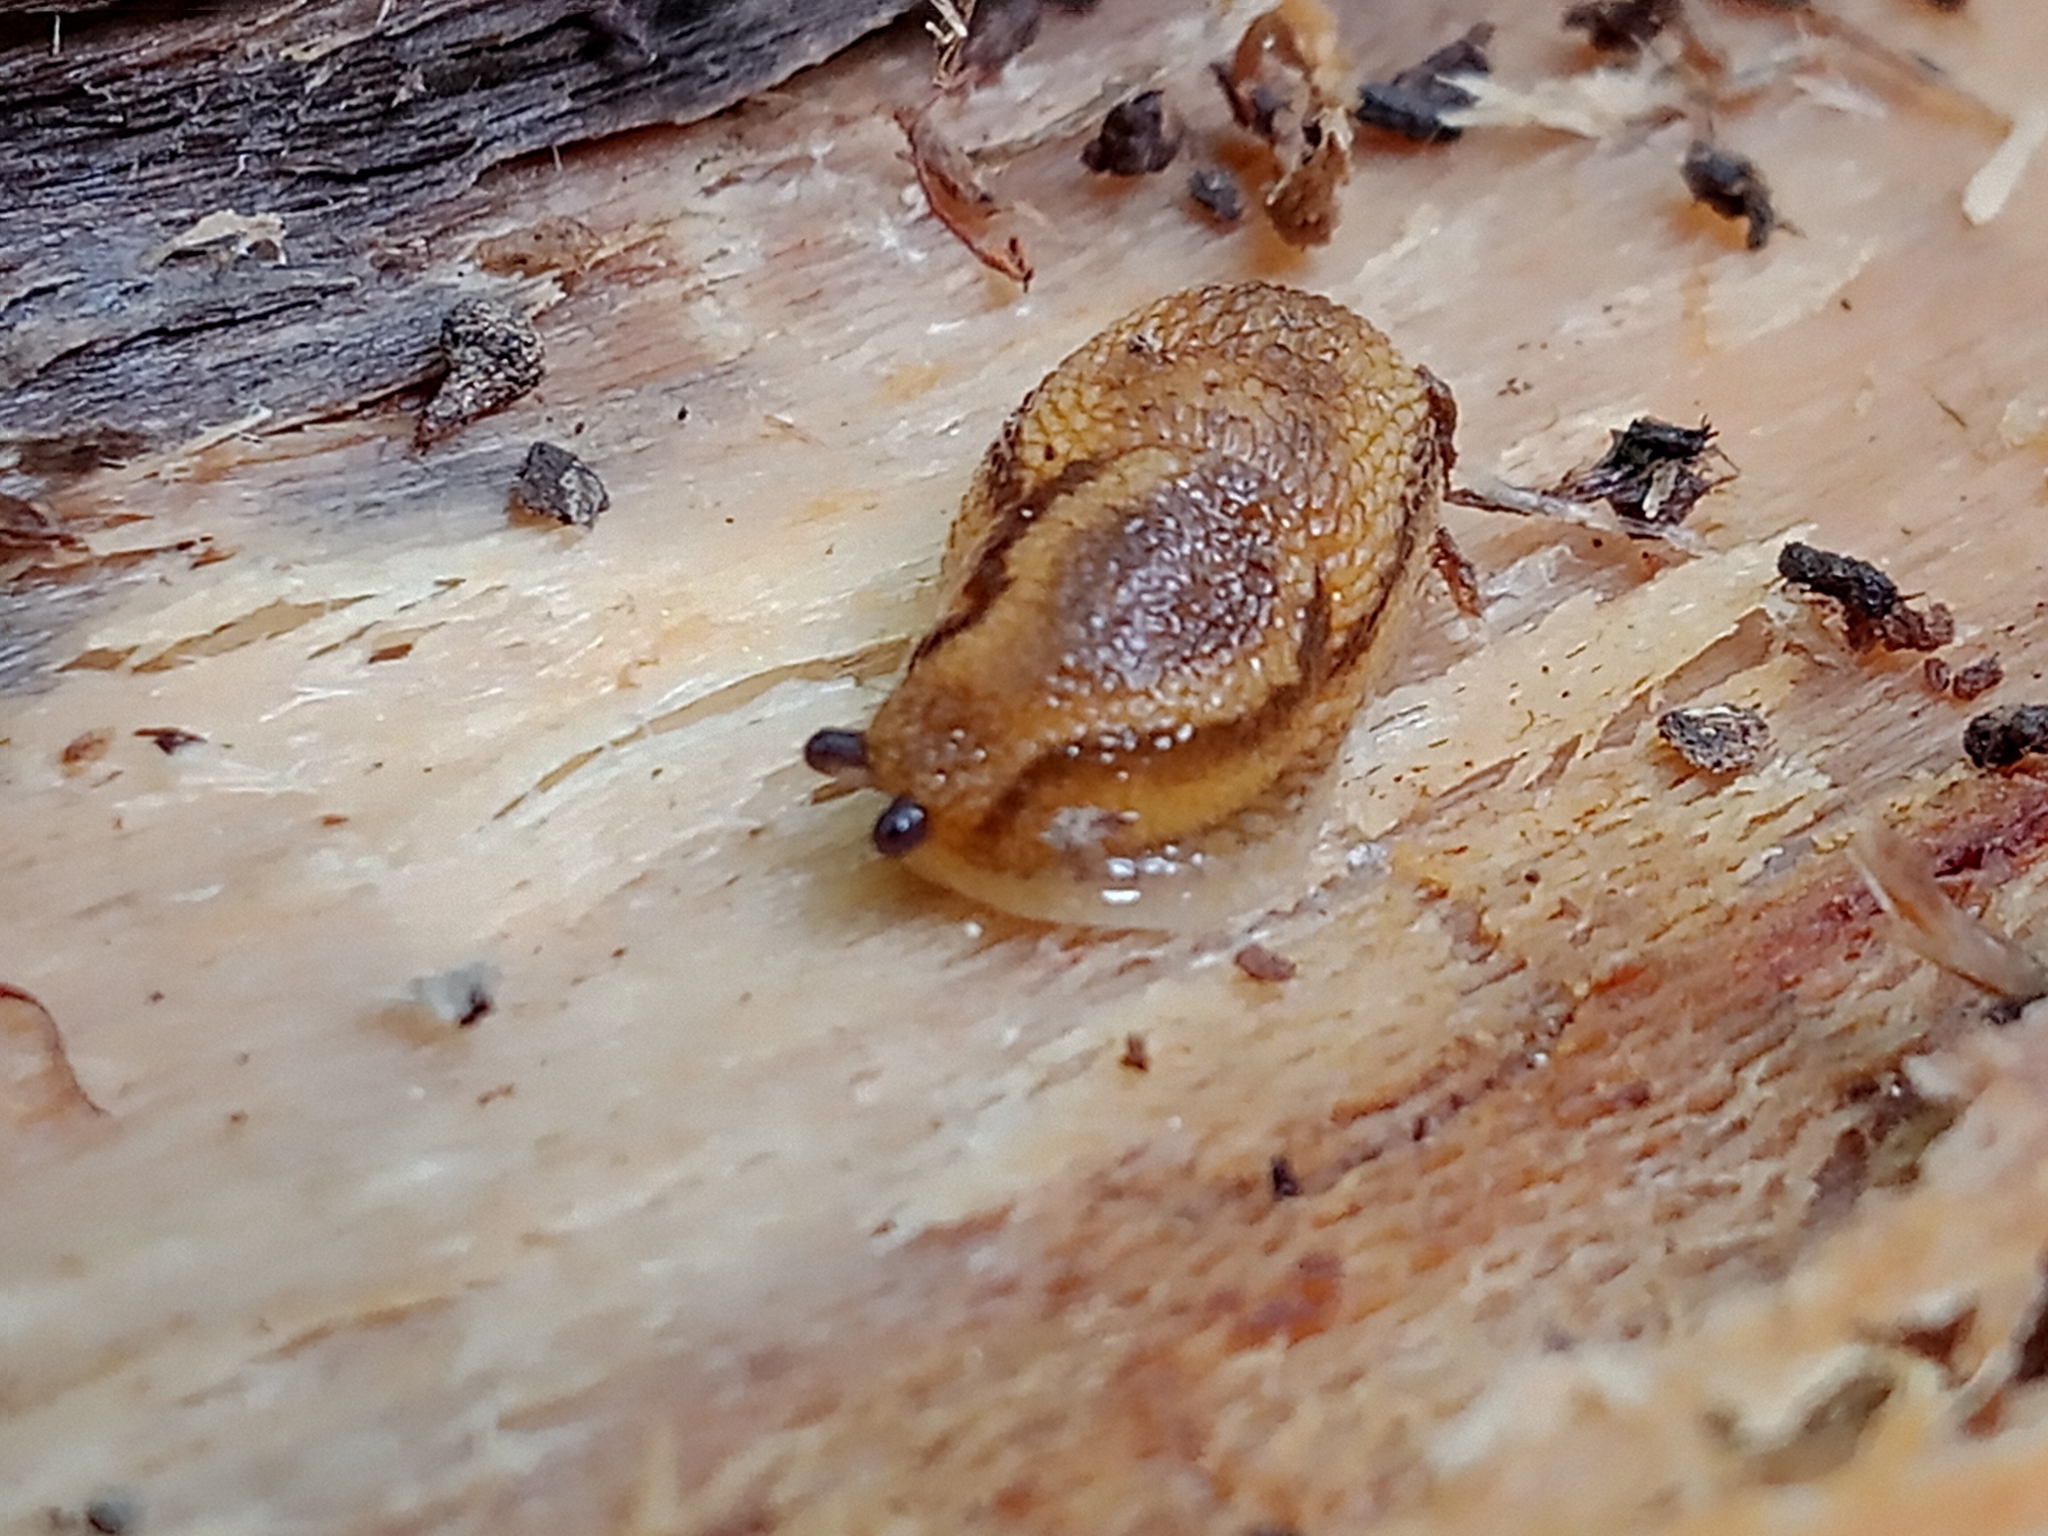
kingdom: Animalia
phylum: Mollusca
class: Gastropoda
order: Stylommatophora
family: Arionidae
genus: Arion
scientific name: Arion fuscus
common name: Northern dusky slug
